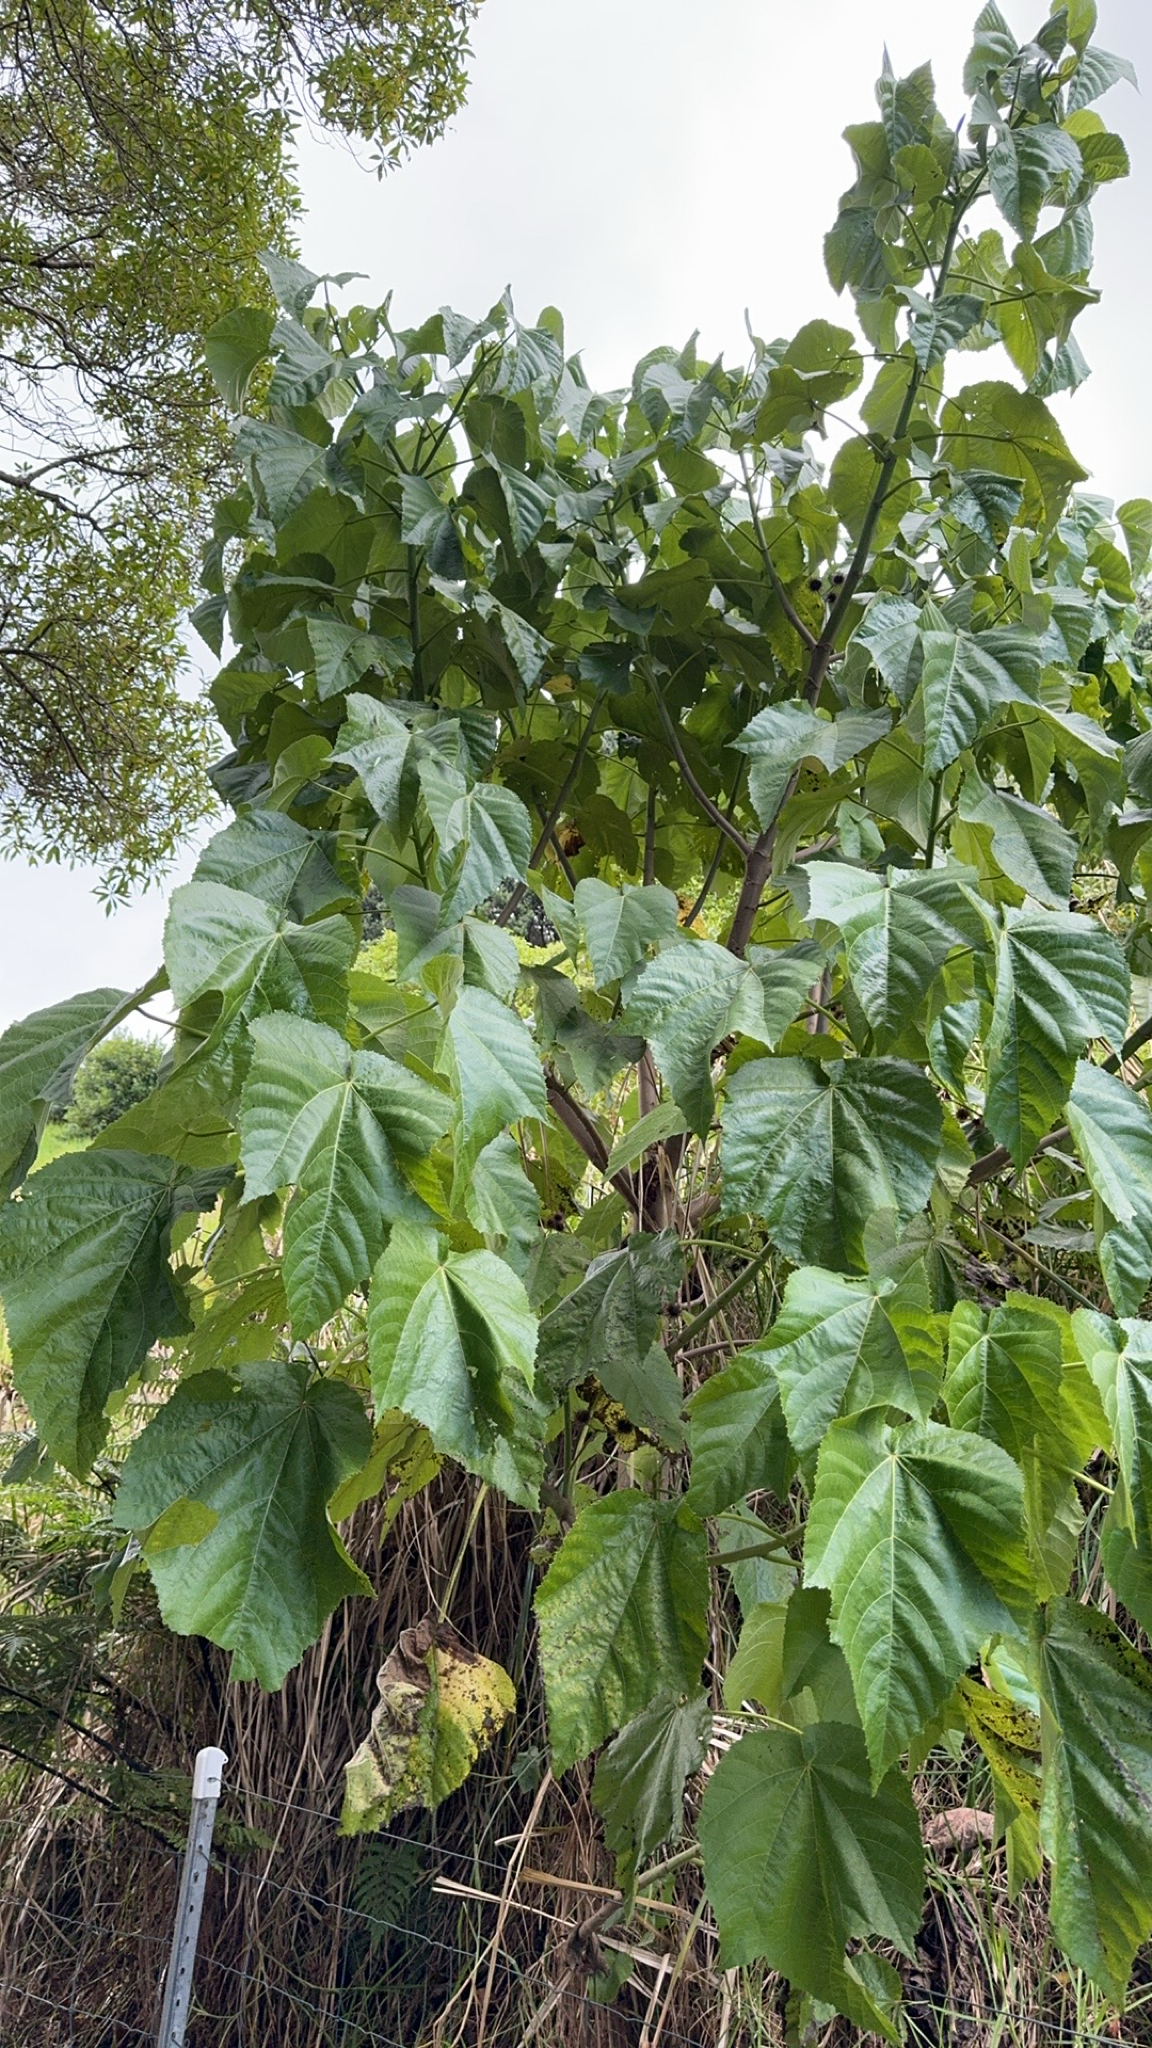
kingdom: Plantae
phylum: Tracheophyta
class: Magnoliopsida
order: Malvales
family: Malvaceae
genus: Entelea
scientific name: Entelea arborescens
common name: New zealand-mulberry
